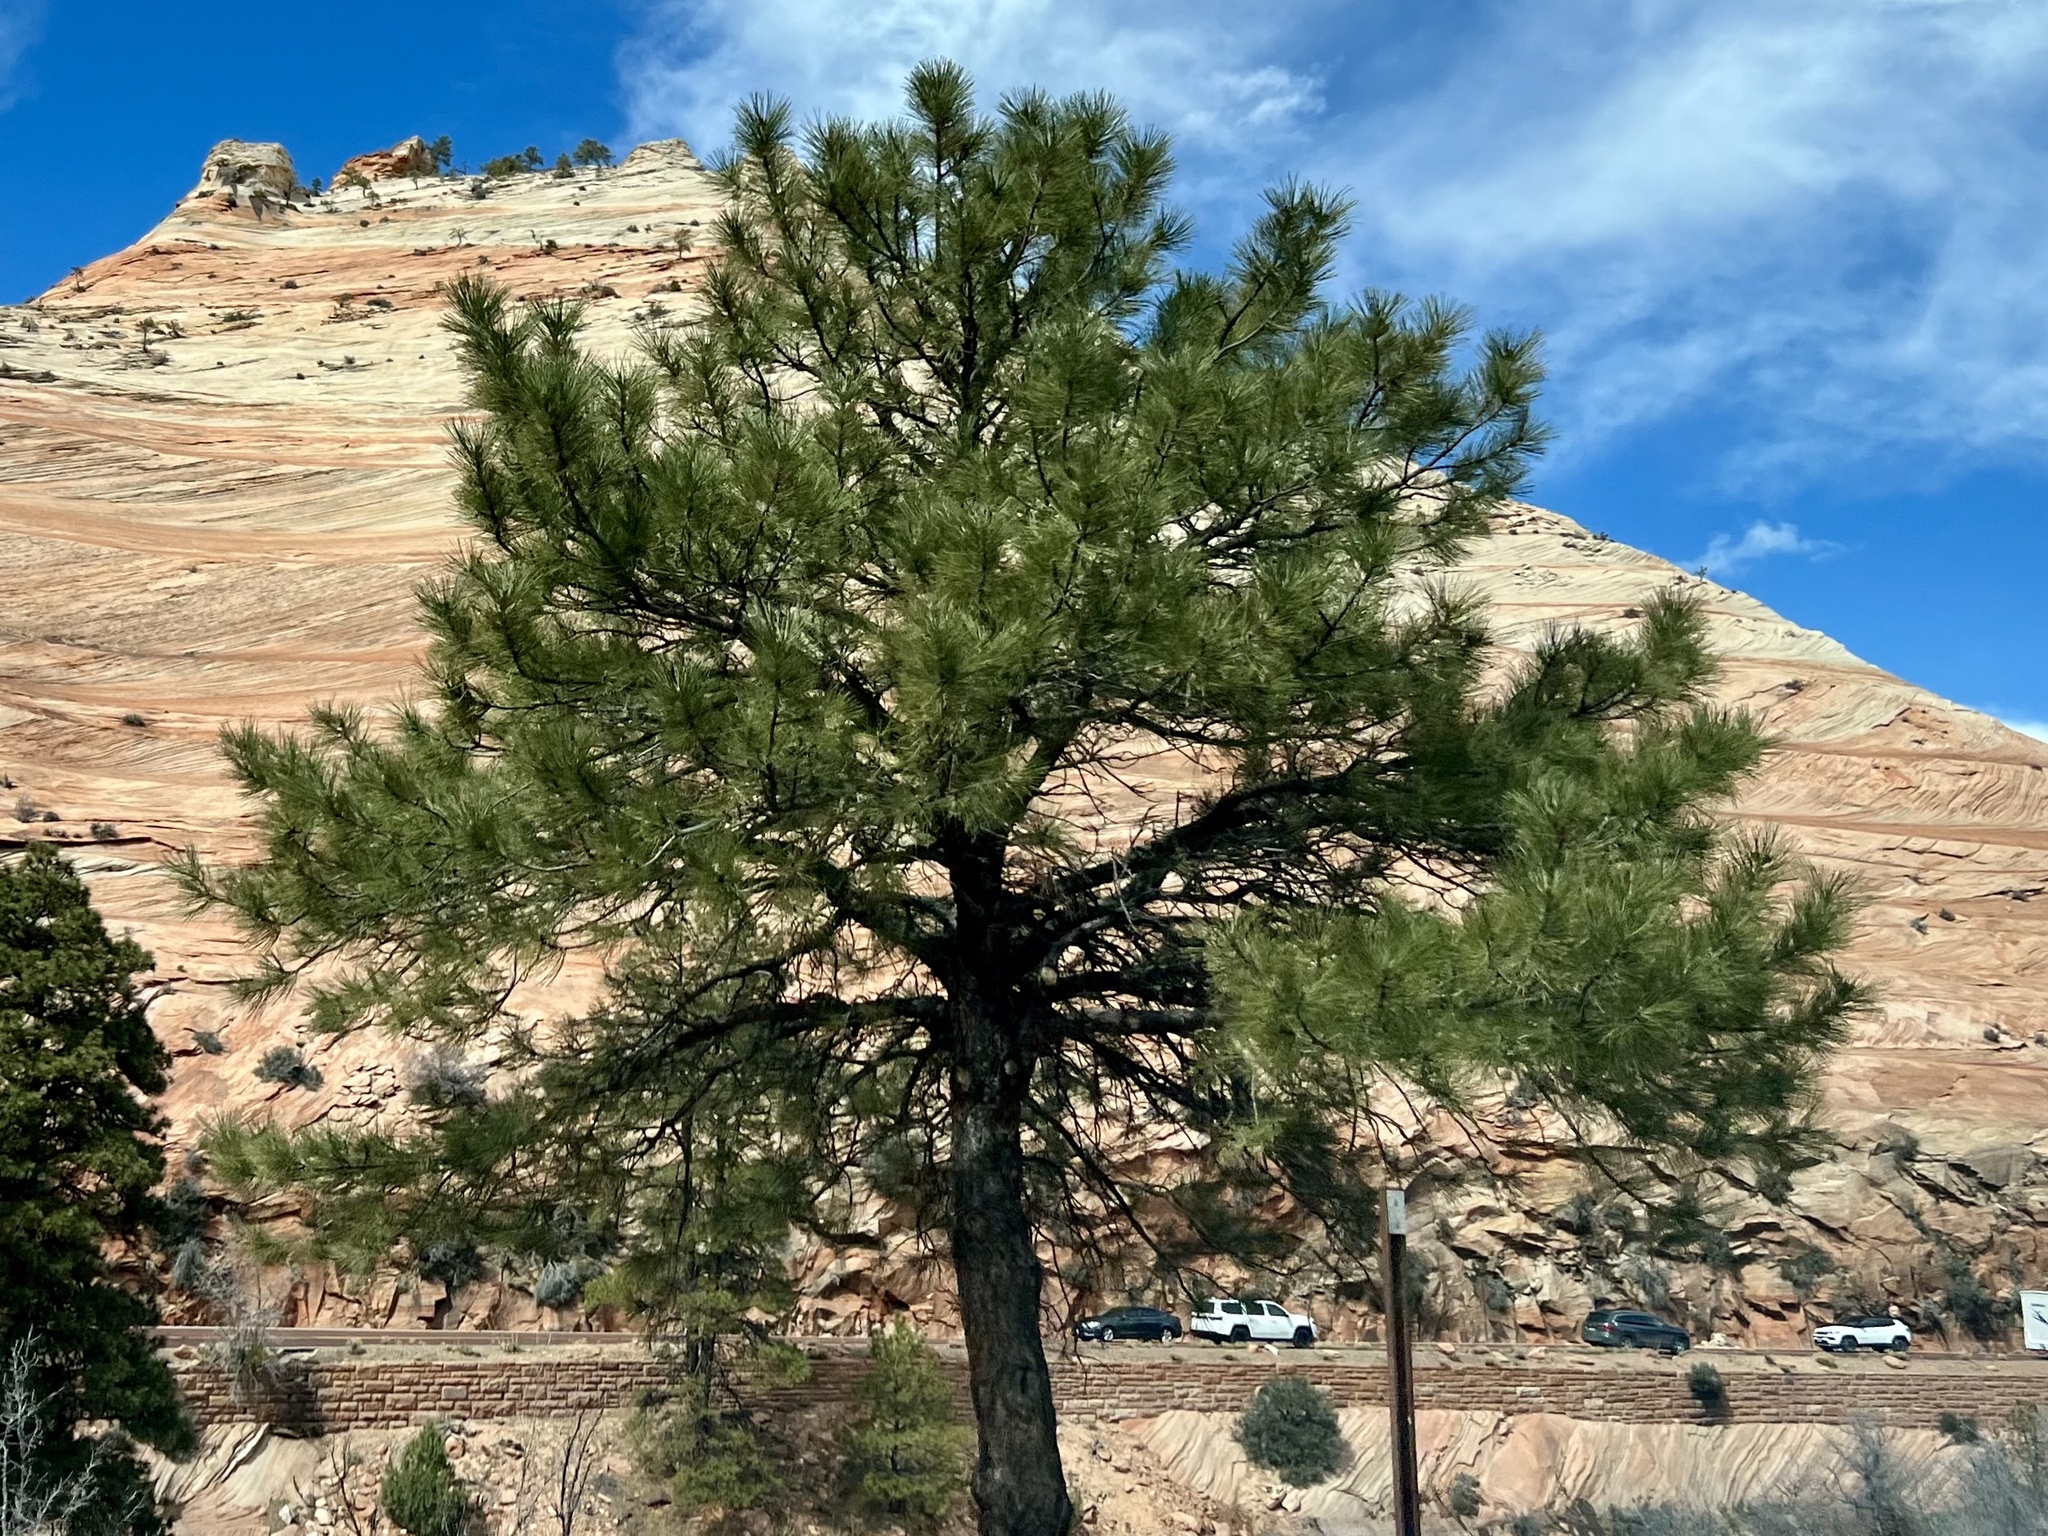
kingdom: Plantae
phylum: Tracheophyta
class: Pinopsida
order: Pinales
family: Pinaceae
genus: Pinus
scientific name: Pinus ponderosa
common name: Western yellow-pine
